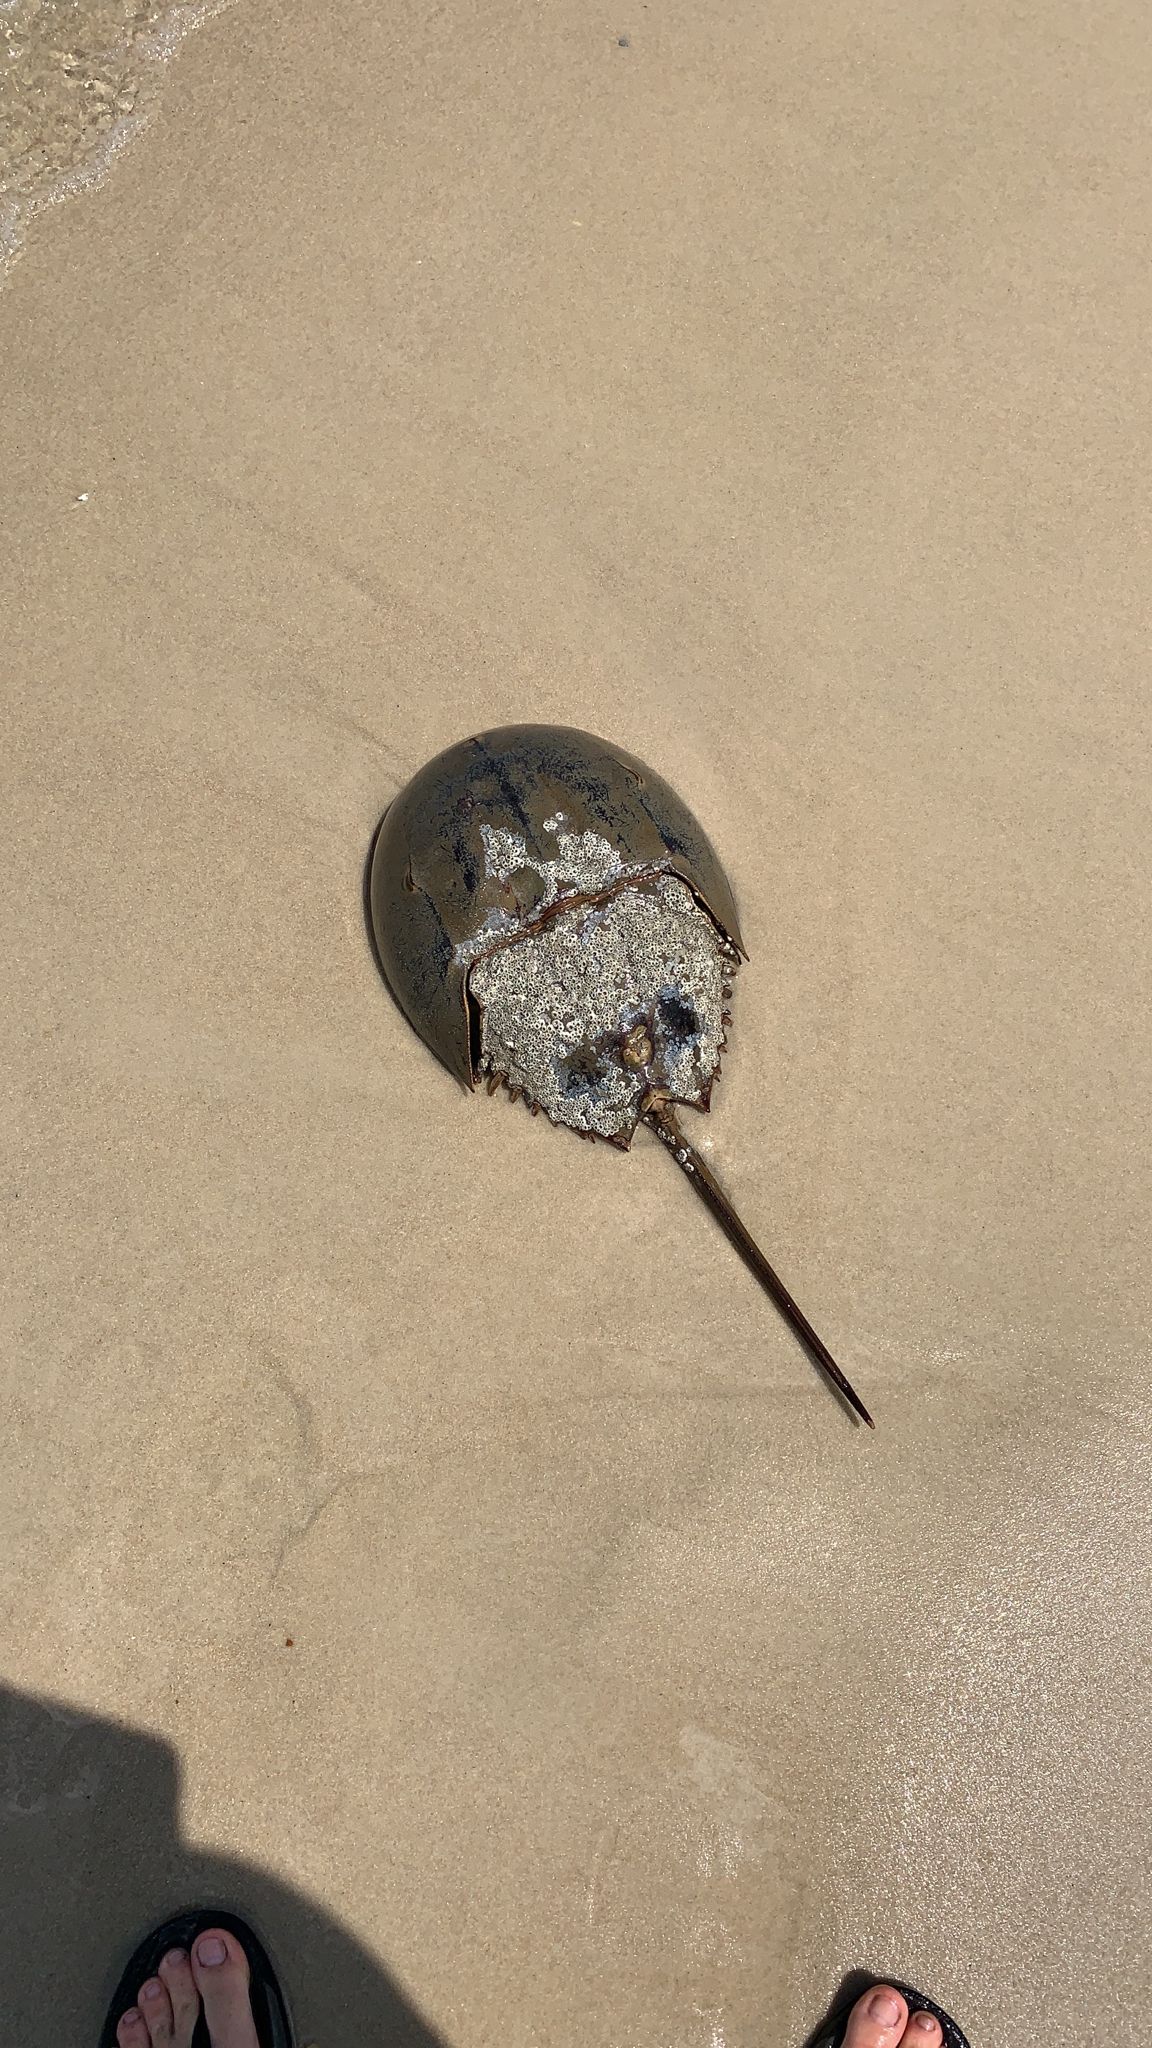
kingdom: Animalia
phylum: Arthropoda
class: Merostomata
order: Xiphosurida
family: Limulidae
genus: Limulus
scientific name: Limulus polyphemus
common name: Horseshoe crab
